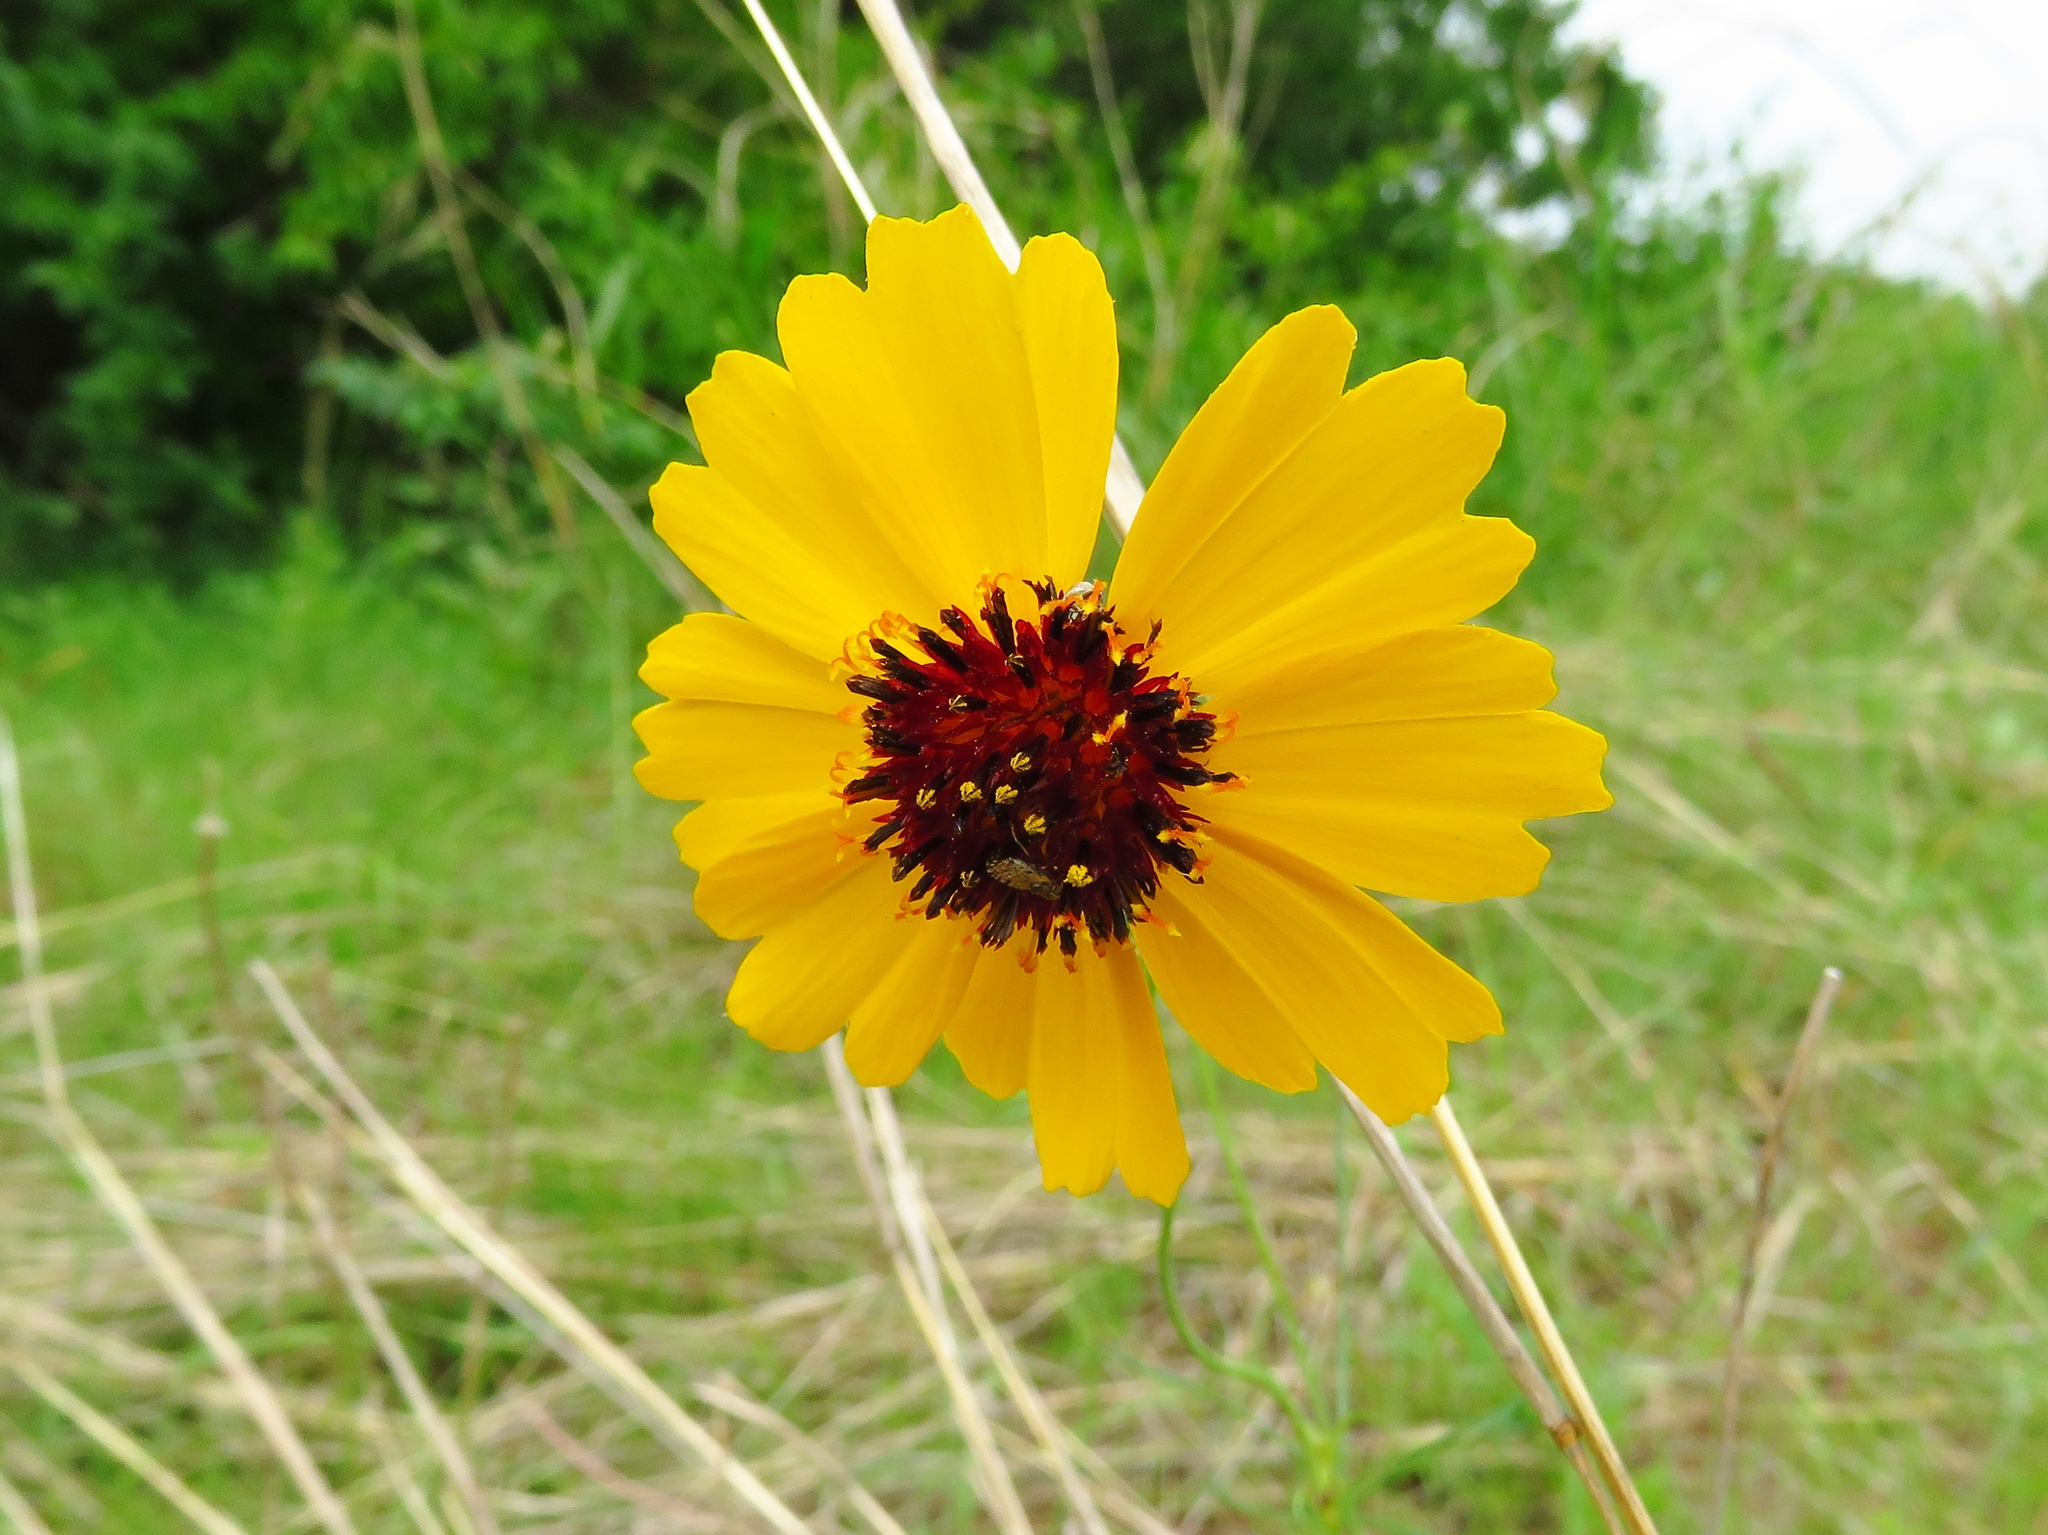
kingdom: Plantae
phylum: Tracheophyta
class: Magnoliopsida
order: Asterales
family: Asteraceae
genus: Thelesperma
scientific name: Thelesperma filifolium
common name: Stiff greenthread
